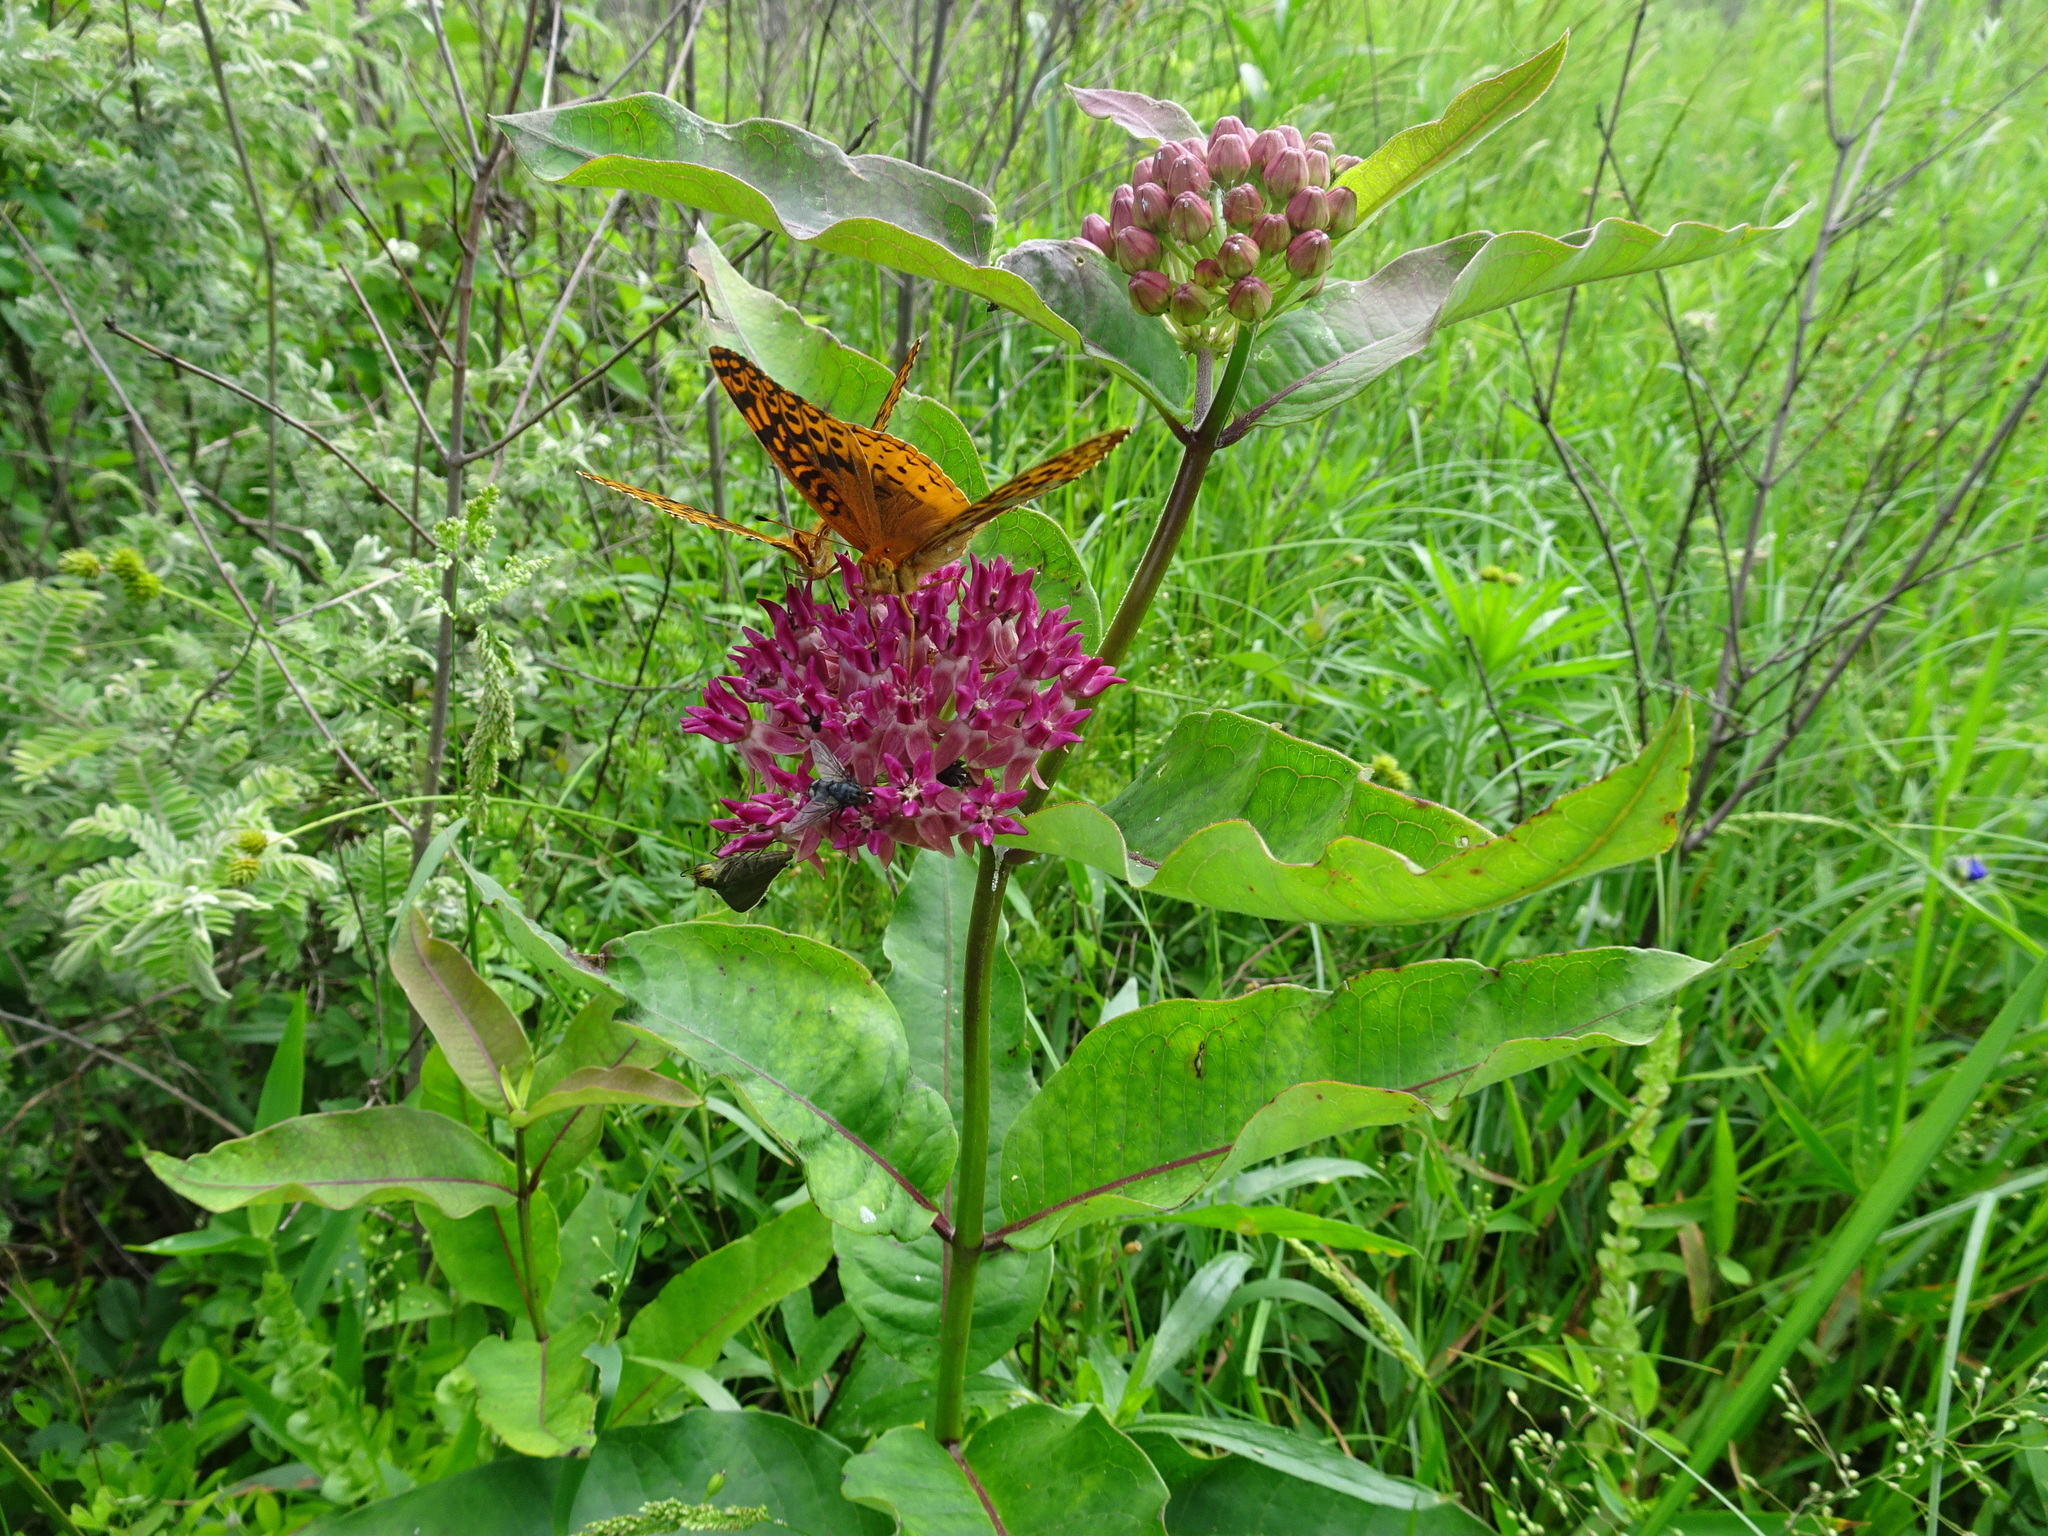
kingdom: Animalia
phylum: Arthropoda
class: Insecta
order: Lepidoptera
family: Nymphalidae
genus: Speyeria
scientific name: Speyeria cybele
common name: Great spangled fritillary
